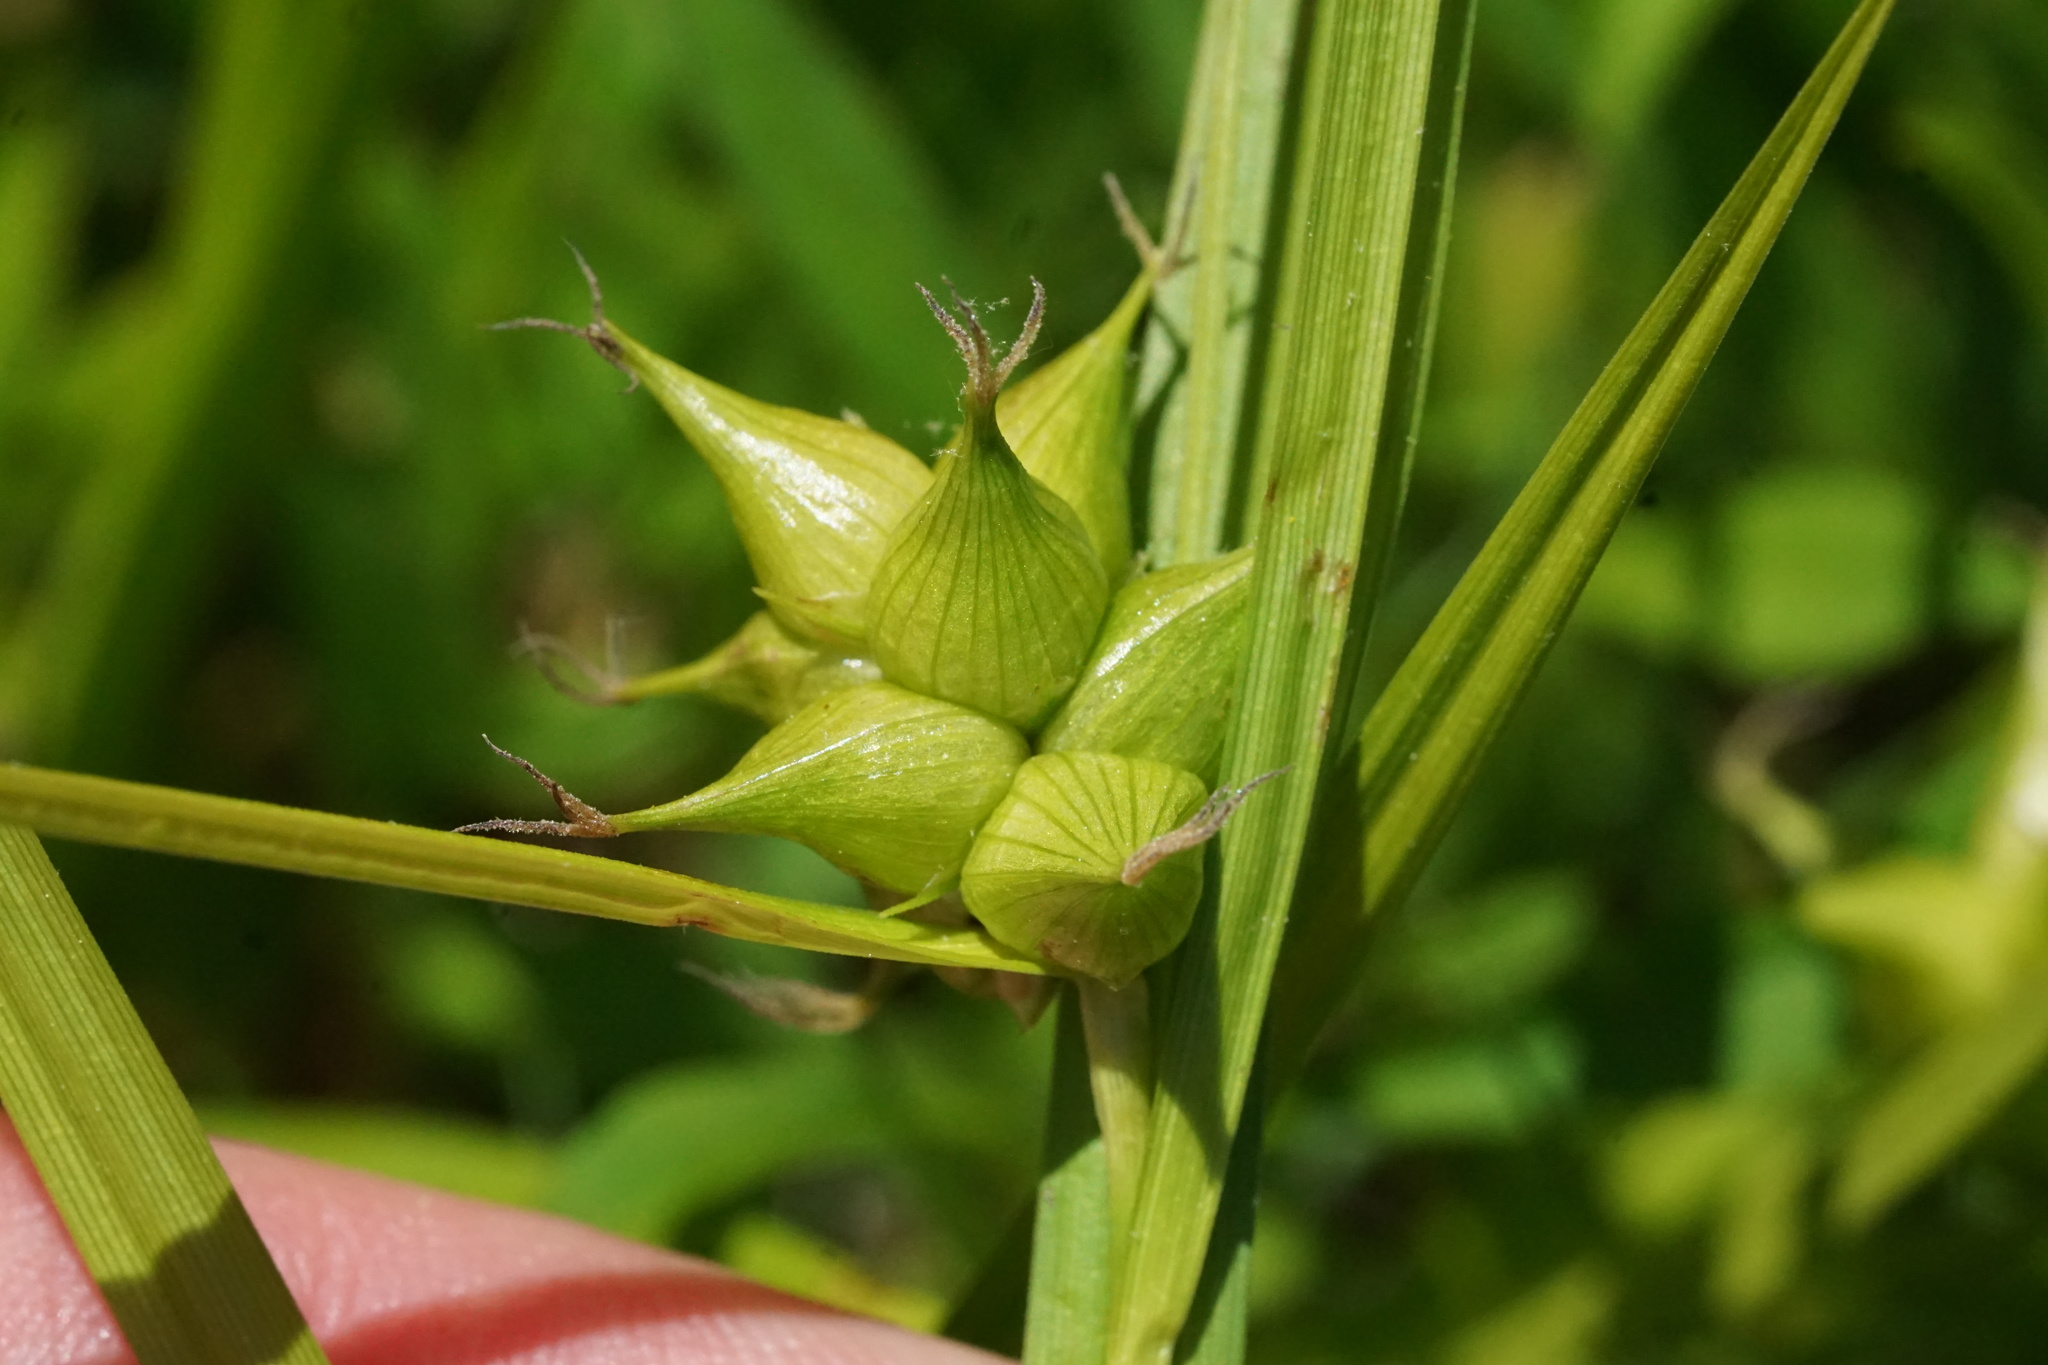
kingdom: Plantae
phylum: Tracheophyta
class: Liliopsida
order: Poales
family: Cyperaceae
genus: Carex
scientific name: Carex intumescens
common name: Greater bladder sedge
